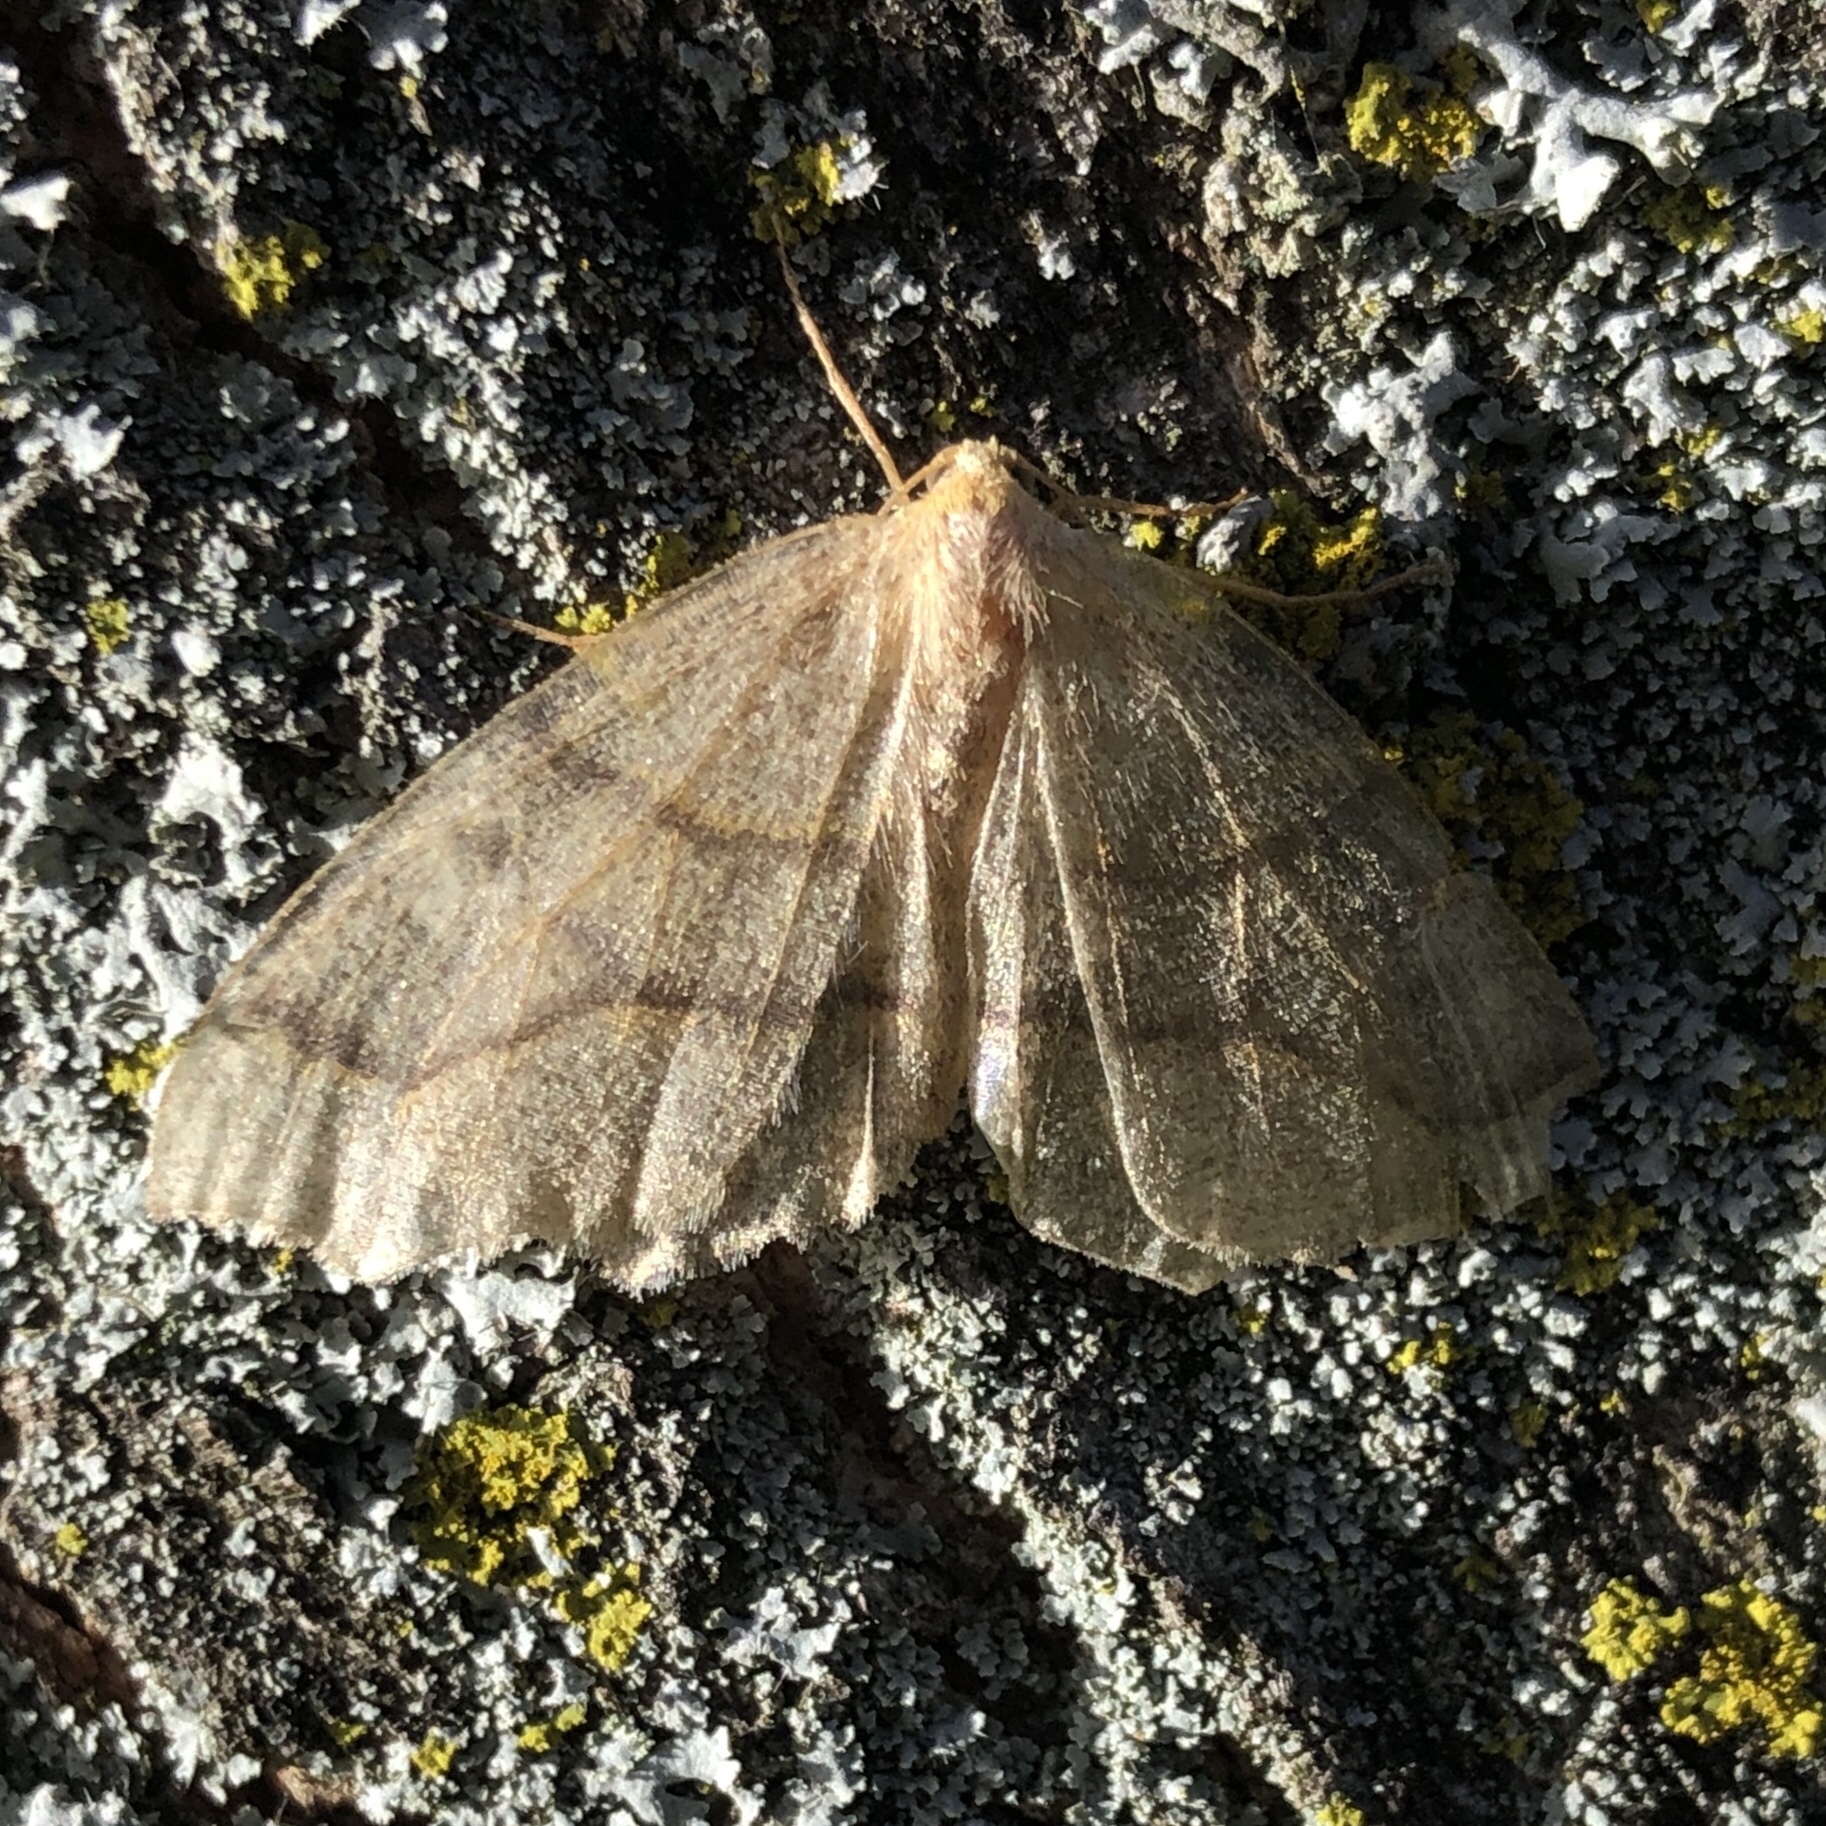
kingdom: Animalia
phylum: Arthropoda
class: Insecta
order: Lepidoptera
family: Geometridae
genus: Lambdina
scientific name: Lambdina fiscellaria
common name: Hemlock looper
